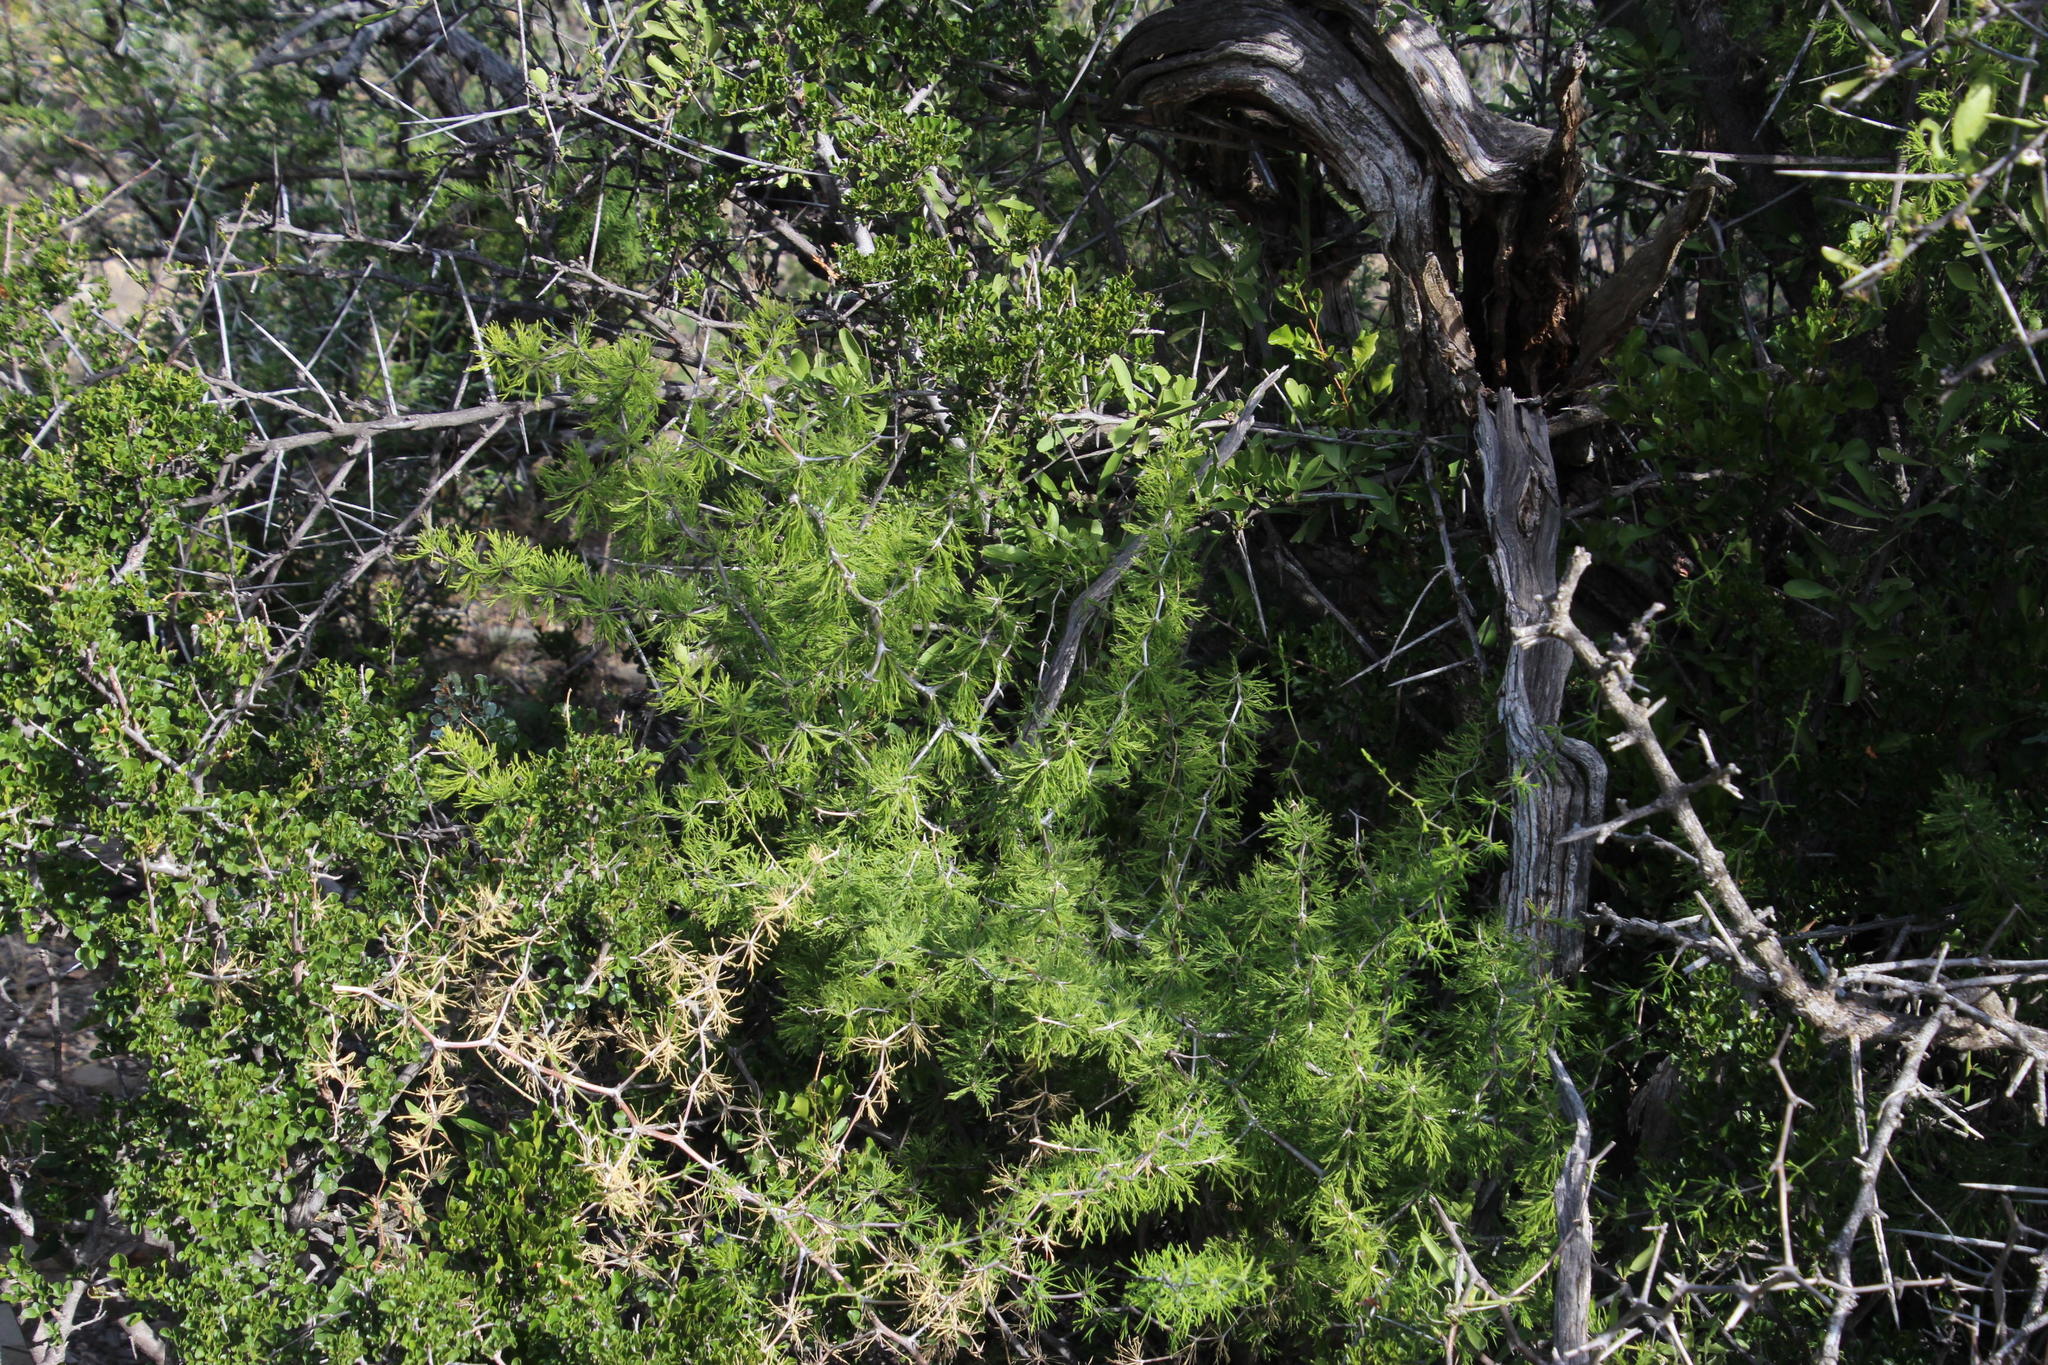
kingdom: Plantae
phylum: Tracheophyta
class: Liliopsida
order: Asparagales
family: Asparagaceae
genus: Asparagus
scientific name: Asparagus burchellii
